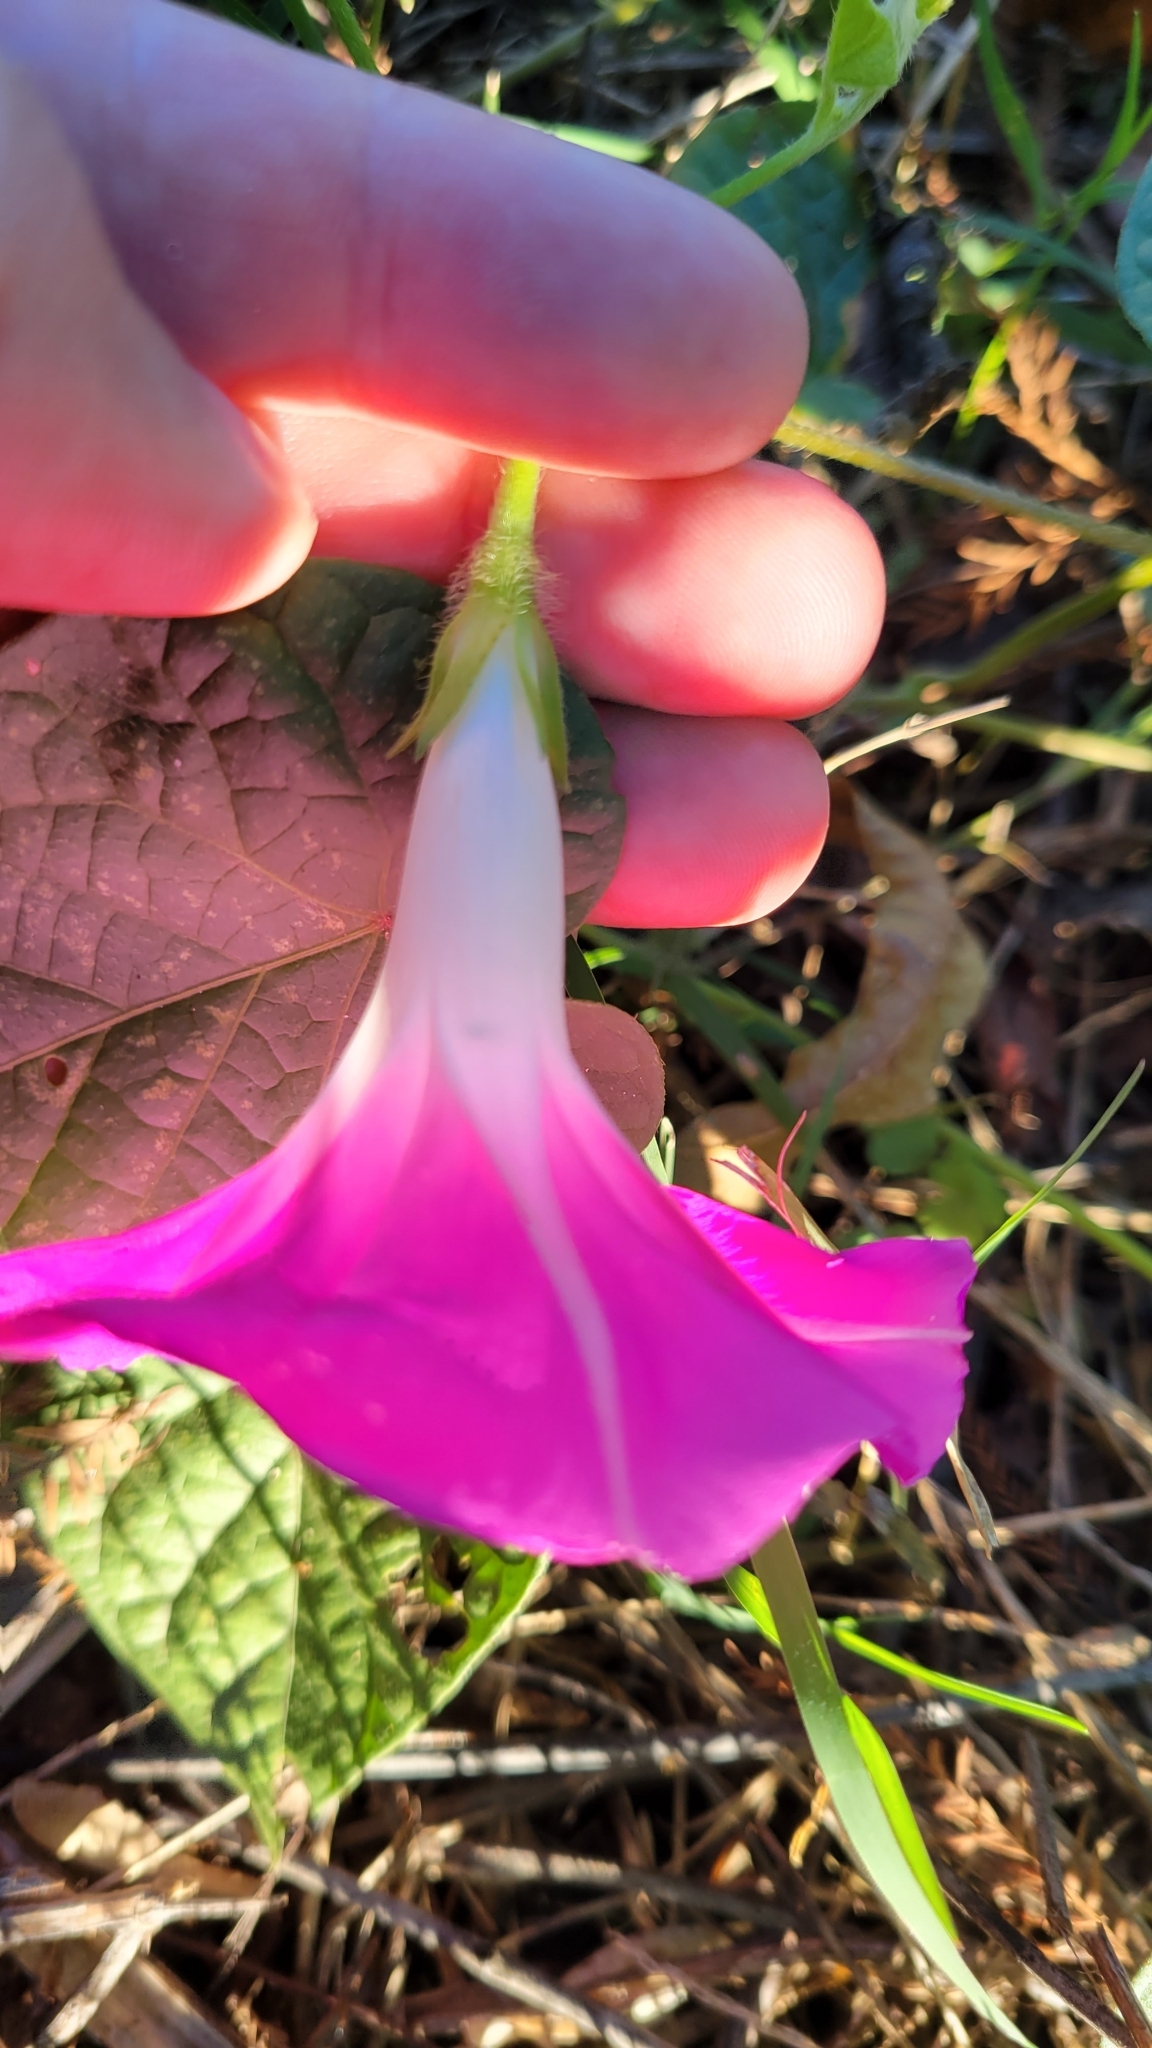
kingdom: Plantae
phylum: Tracheophyta
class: Magnoliopsida
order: Solanales
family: Convolvulaceae
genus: Ipomoea
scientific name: Ipomoea purpurea
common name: Common morning-glory
